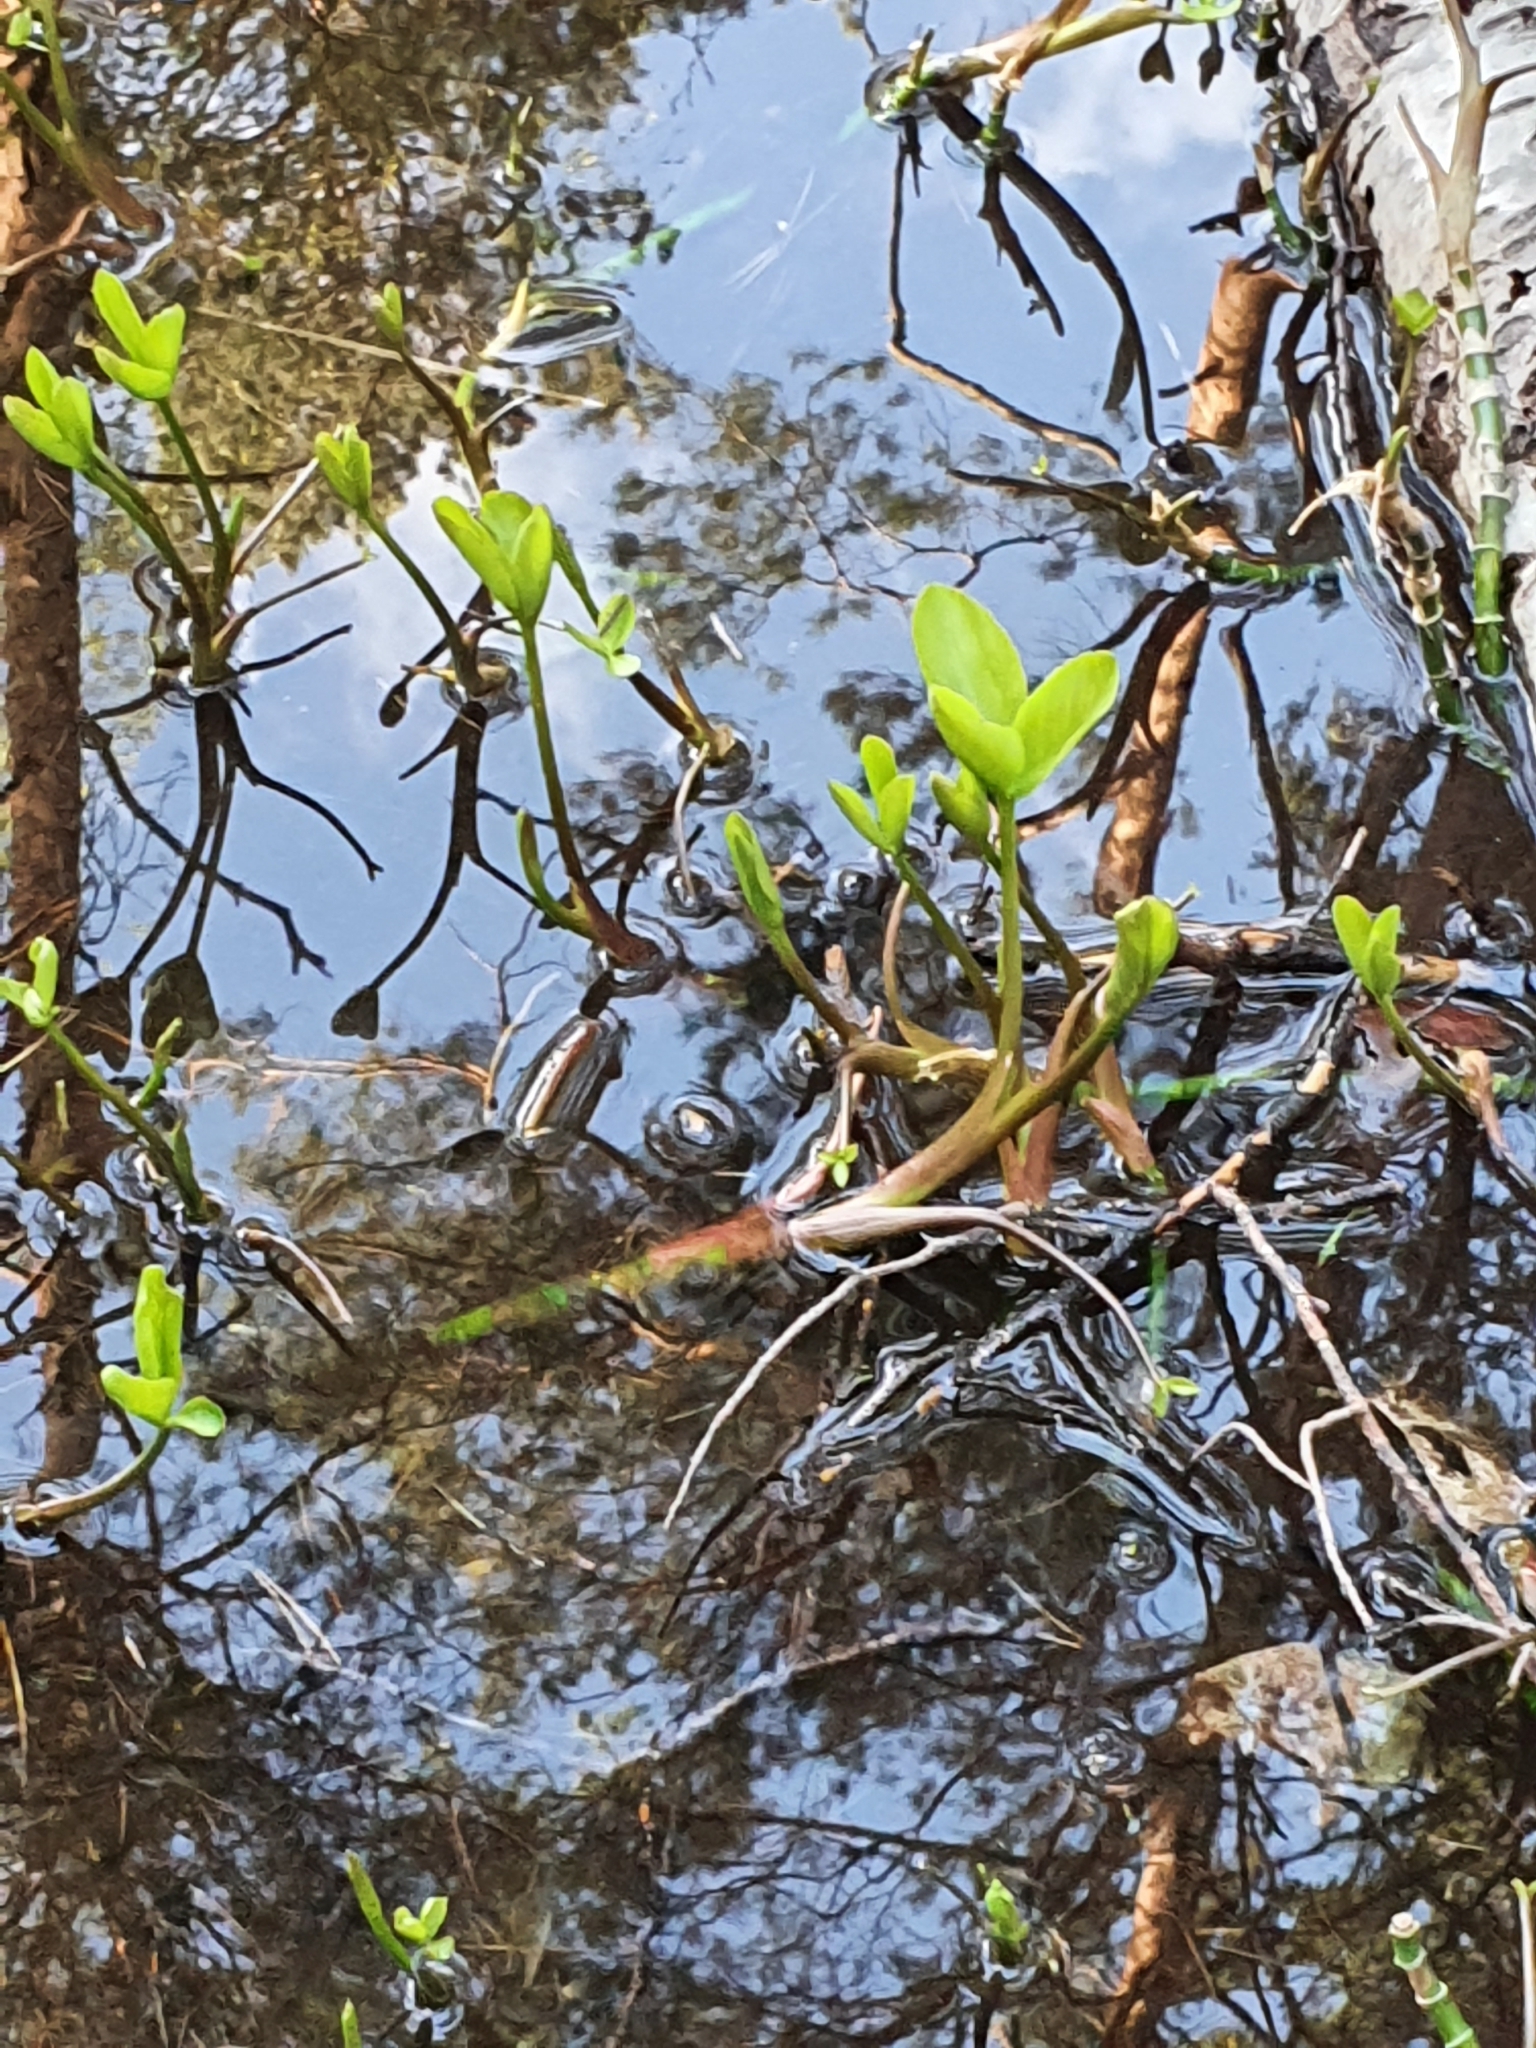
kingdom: Plantae
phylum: Tracheophyta
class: Magnoliopsida
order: Asterales
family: Menyanthaceae
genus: Menyanthes
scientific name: Menyanthes trifoliata
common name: Bogbean
